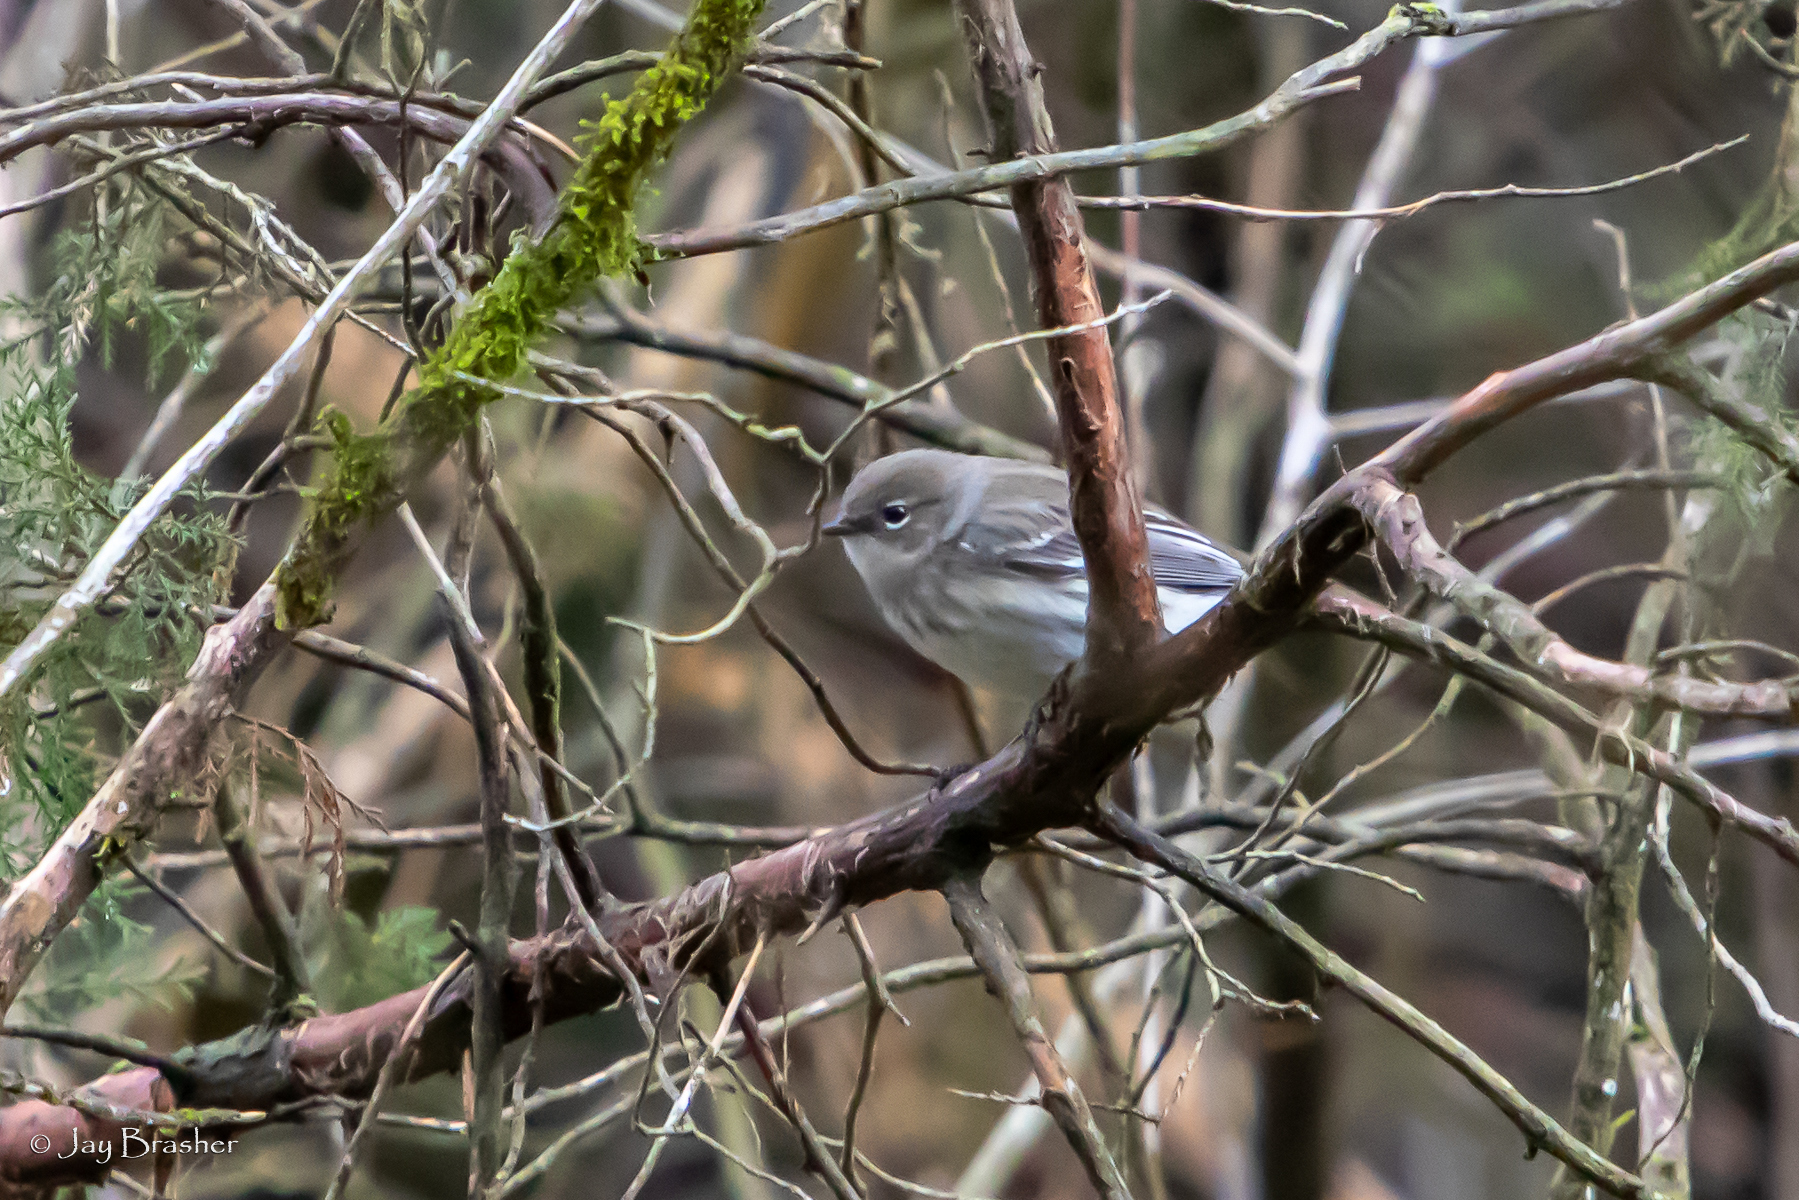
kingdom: Animalia
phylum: Chordata
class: Aves
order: Passeriformes
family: Parulidae
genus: Setophaga
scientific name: Setophaga coronata
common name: Myrtle warbler
